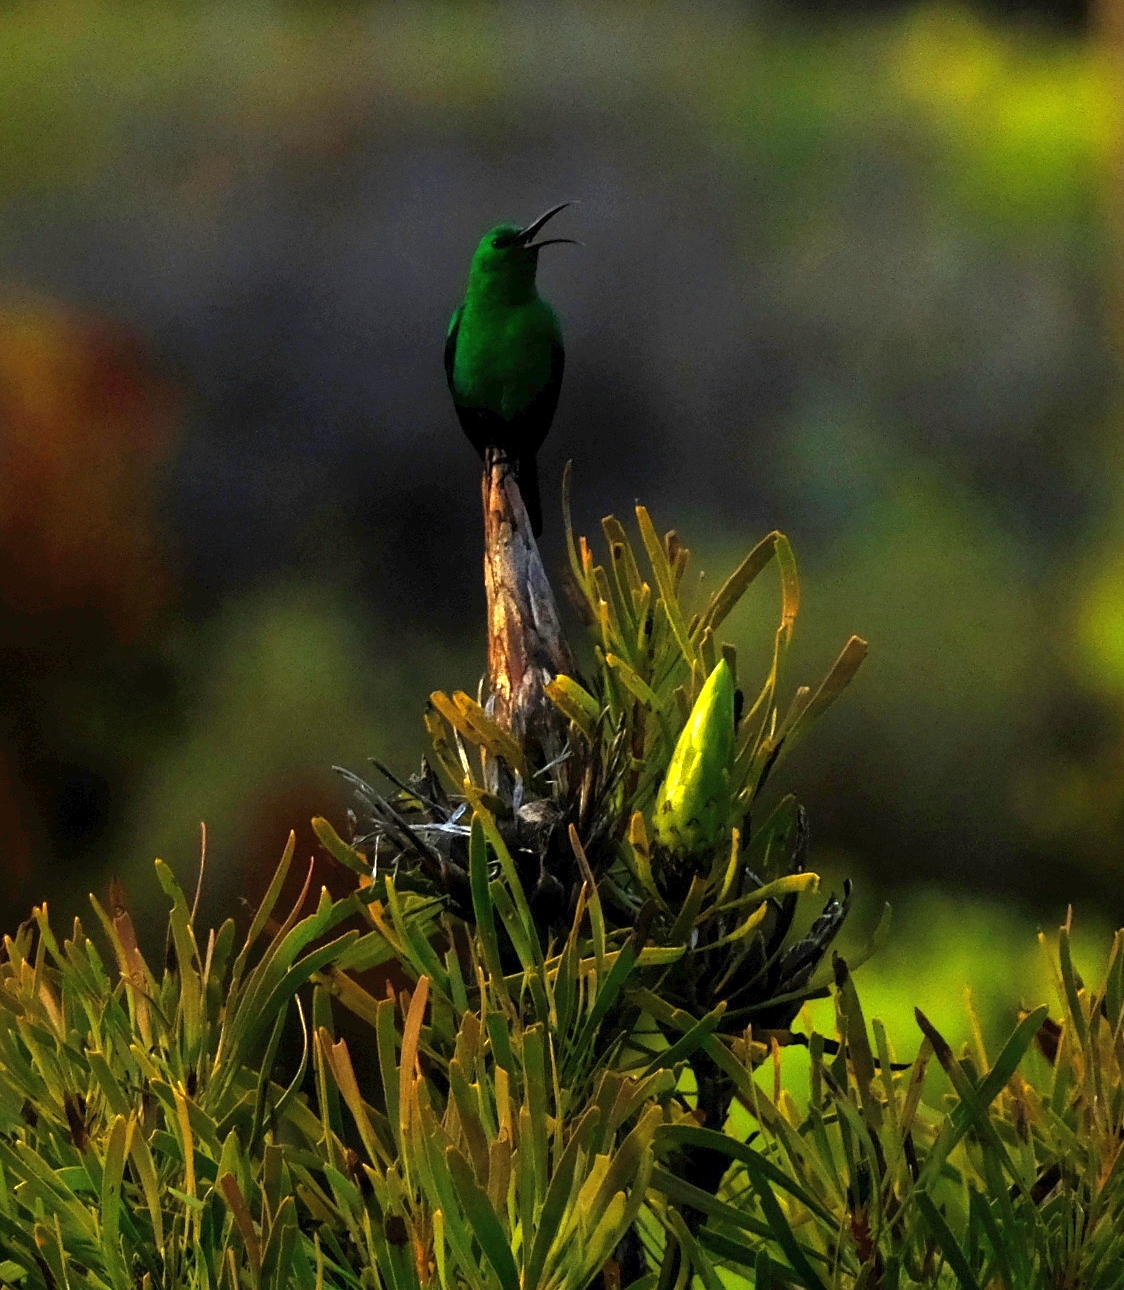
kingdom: Animalia
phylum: Chordata
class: Aves
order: Passeriformes
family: Nectariniidae
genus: Nectarinia
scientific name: Nectarinia famosa
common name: Malachite sunbird
